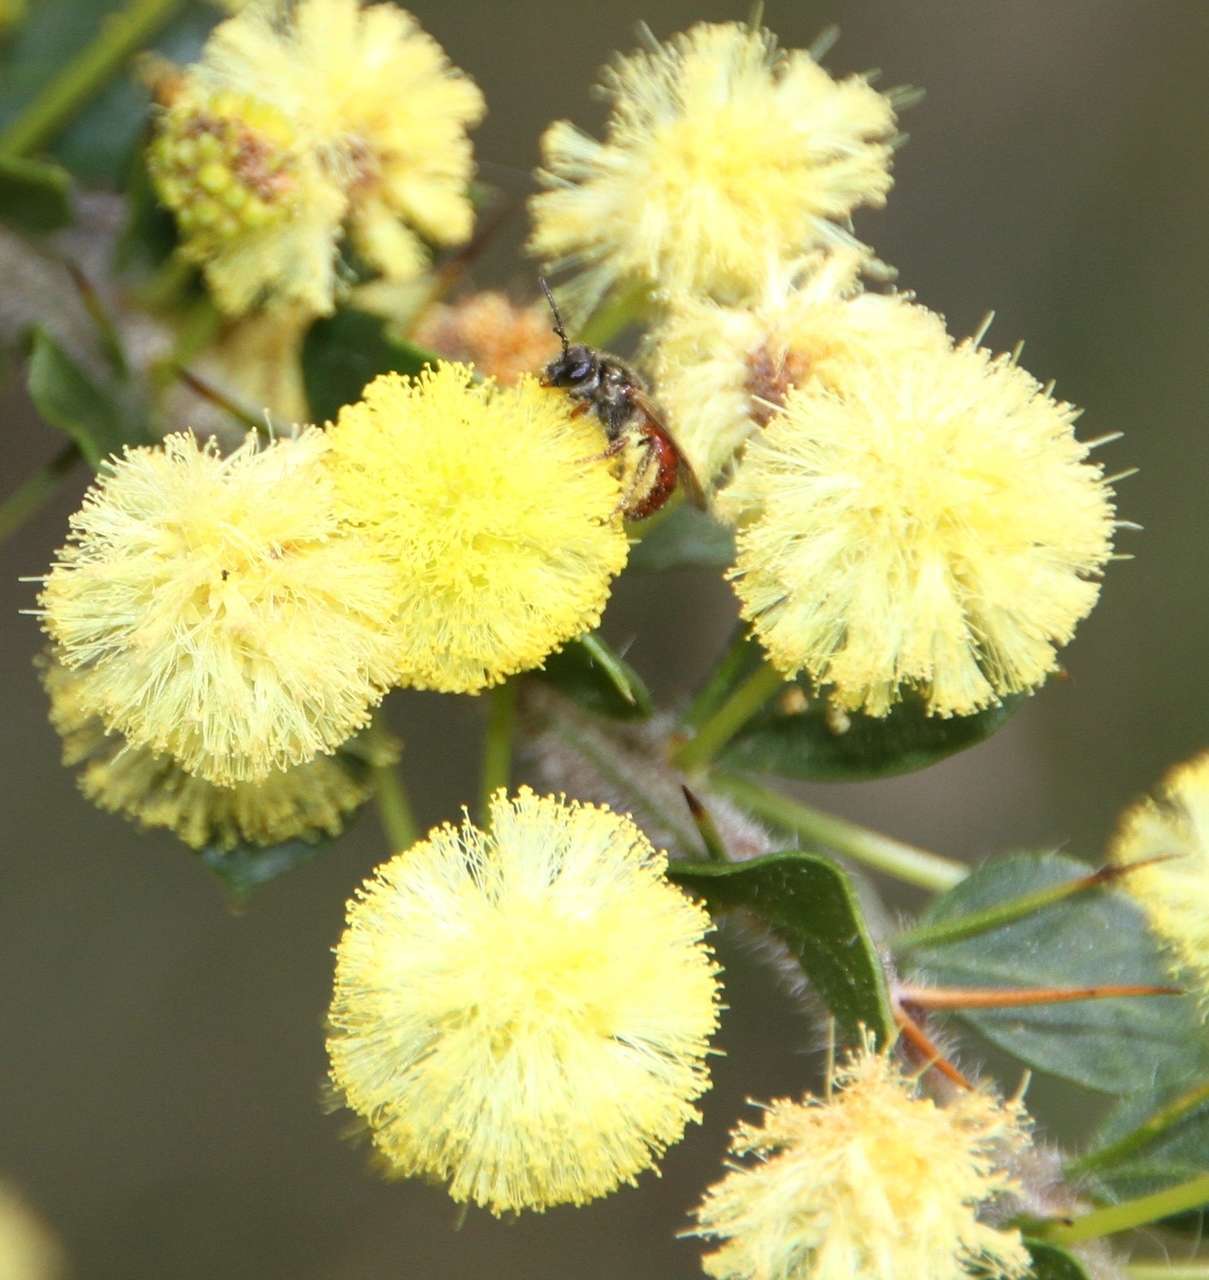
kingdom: Plantae
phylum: Tracheophyta
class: Magnoliopsida
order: Fabales
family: Fabaceae
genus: Acacia
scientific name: Acacia paradoxa
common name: Paradox acacia
